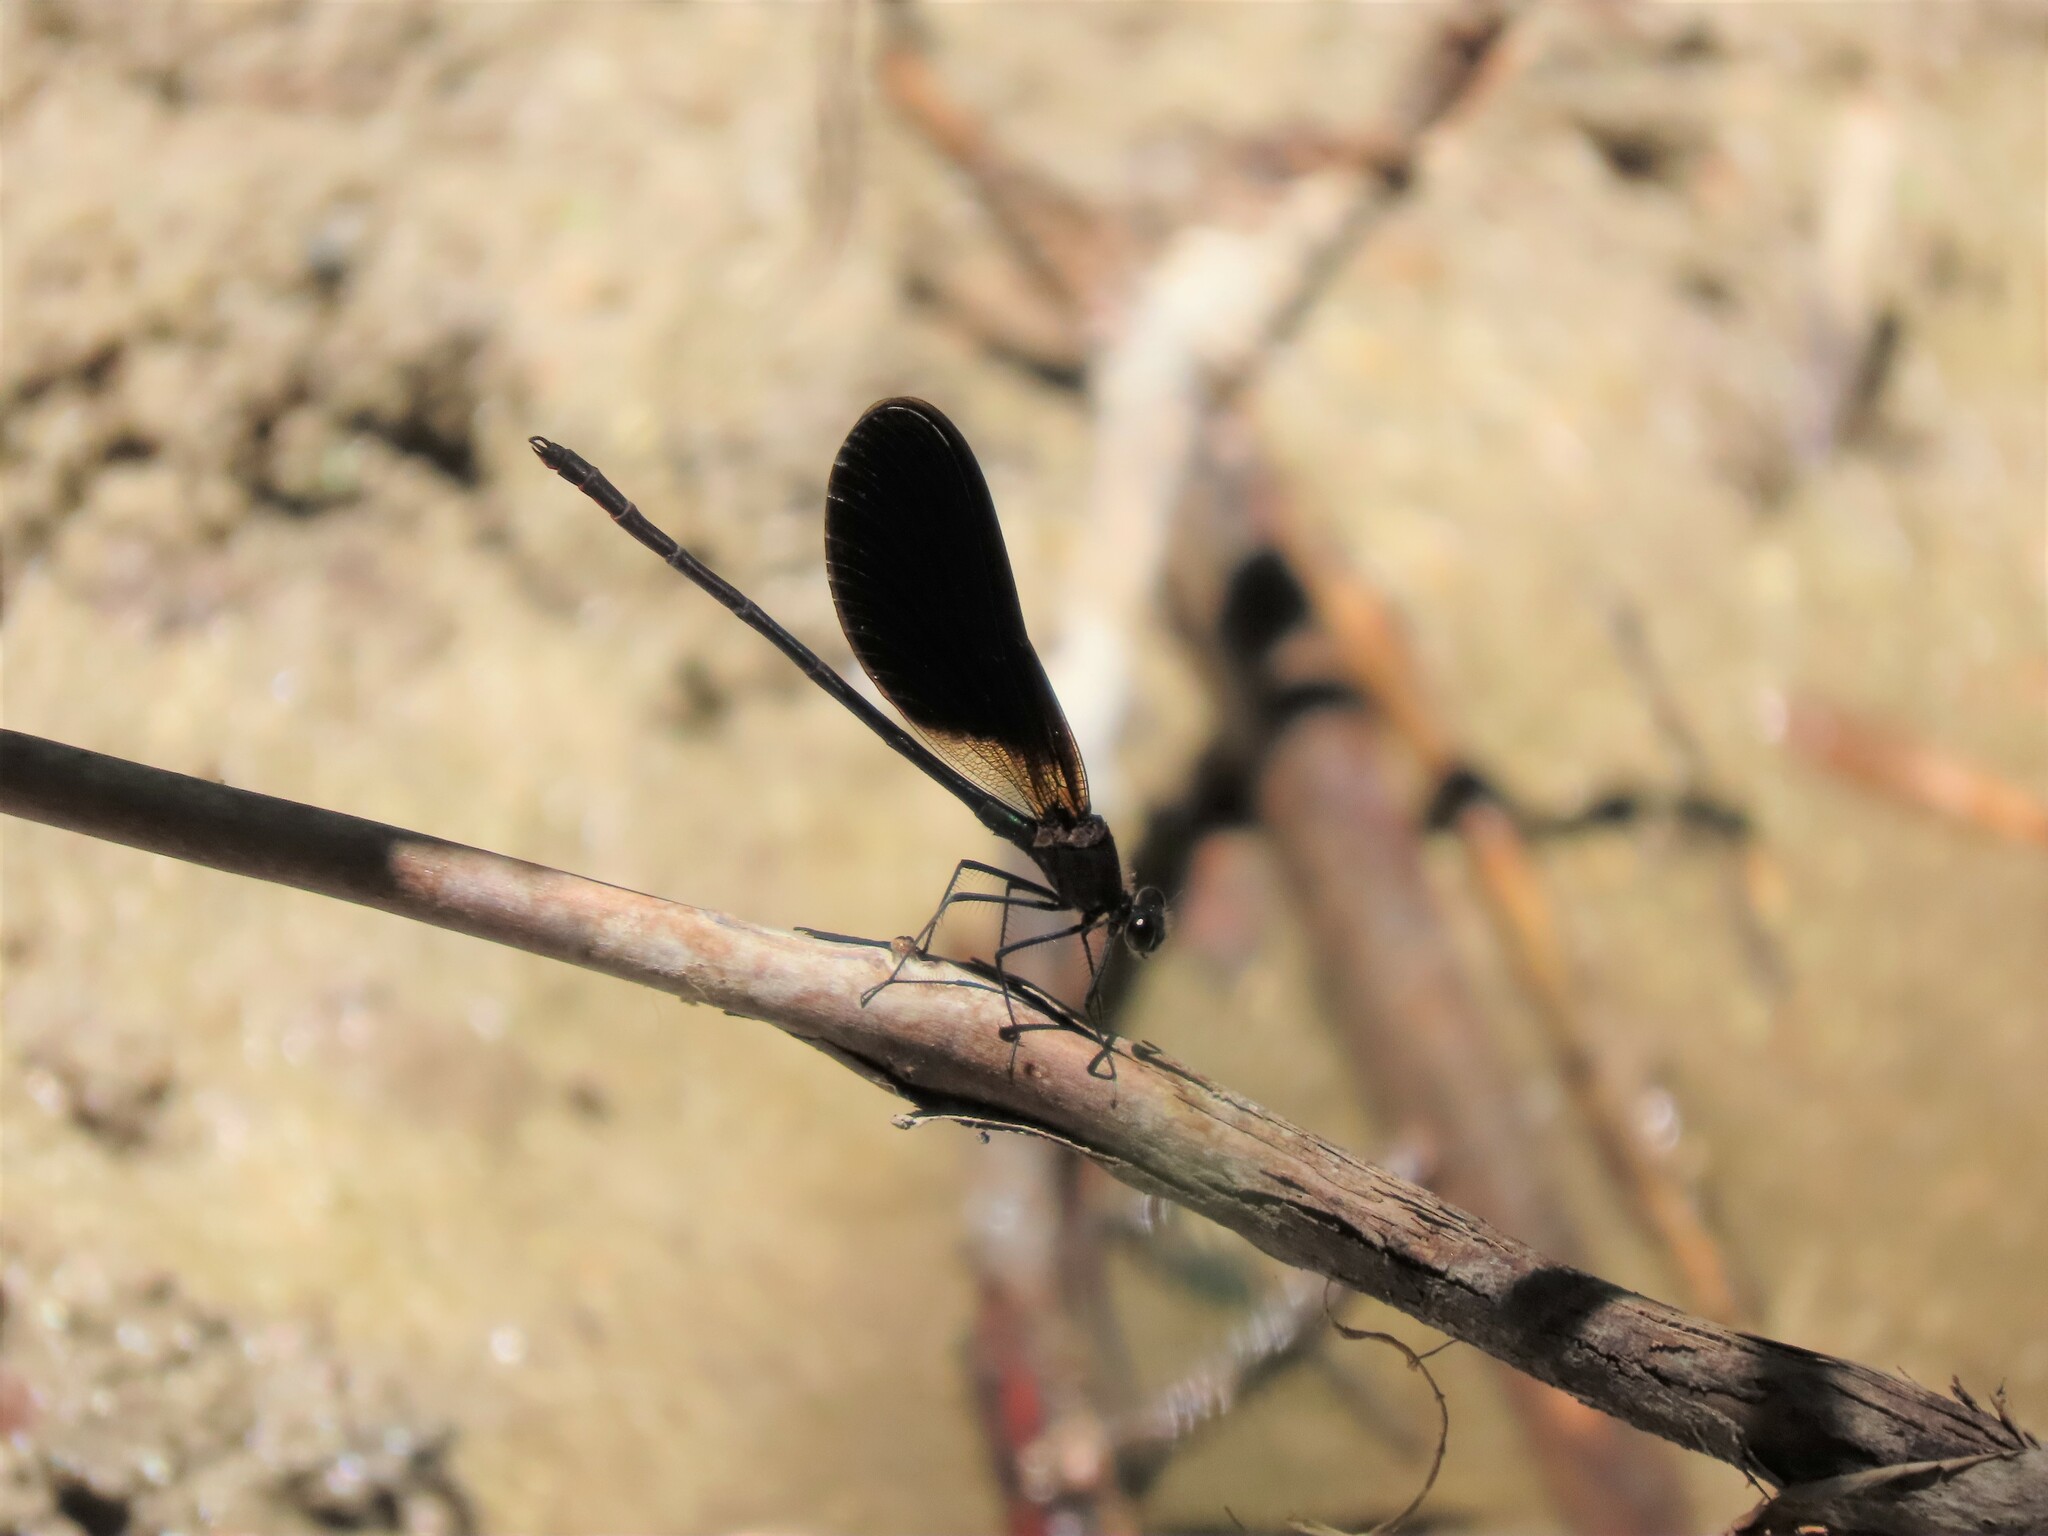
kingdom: Animalia
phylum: Arthropoda
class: Insecta
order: Odonata
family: Calopterygidae
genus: Calopteryx
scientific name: Calopteryx haemorrhoidalis
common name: Copper demoiselle
